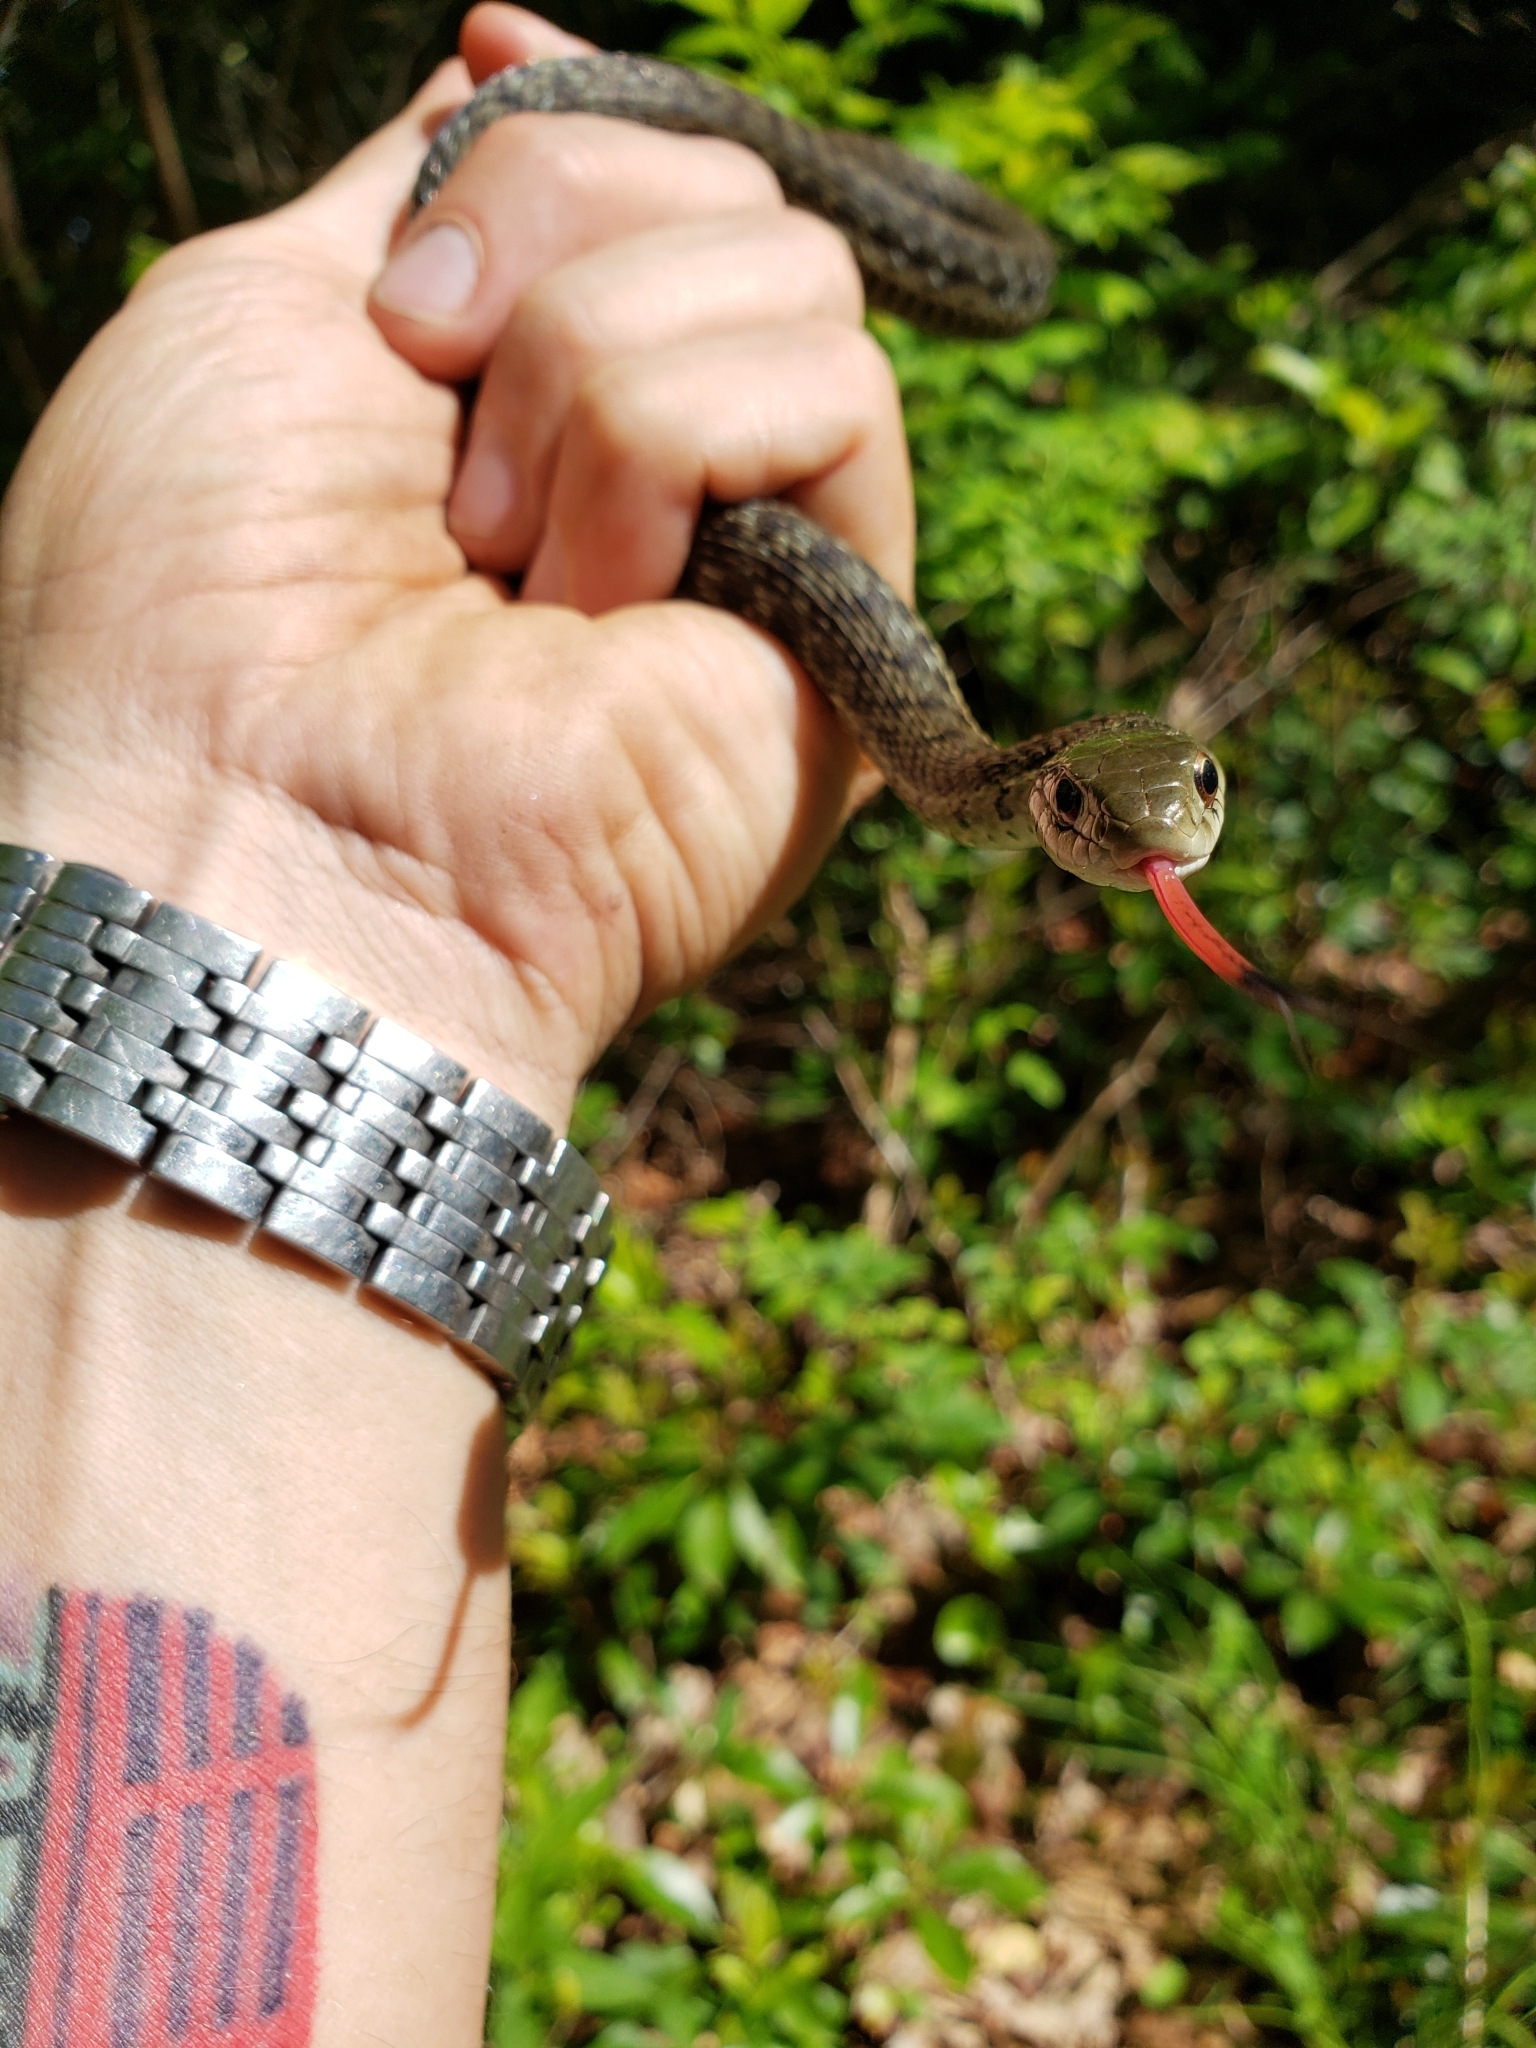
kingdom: Animalia
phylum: Chordata
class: Squamata
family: Colubridae
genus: Thamnophis
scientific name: Thamnophis sirtalis
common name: Common garter snake
